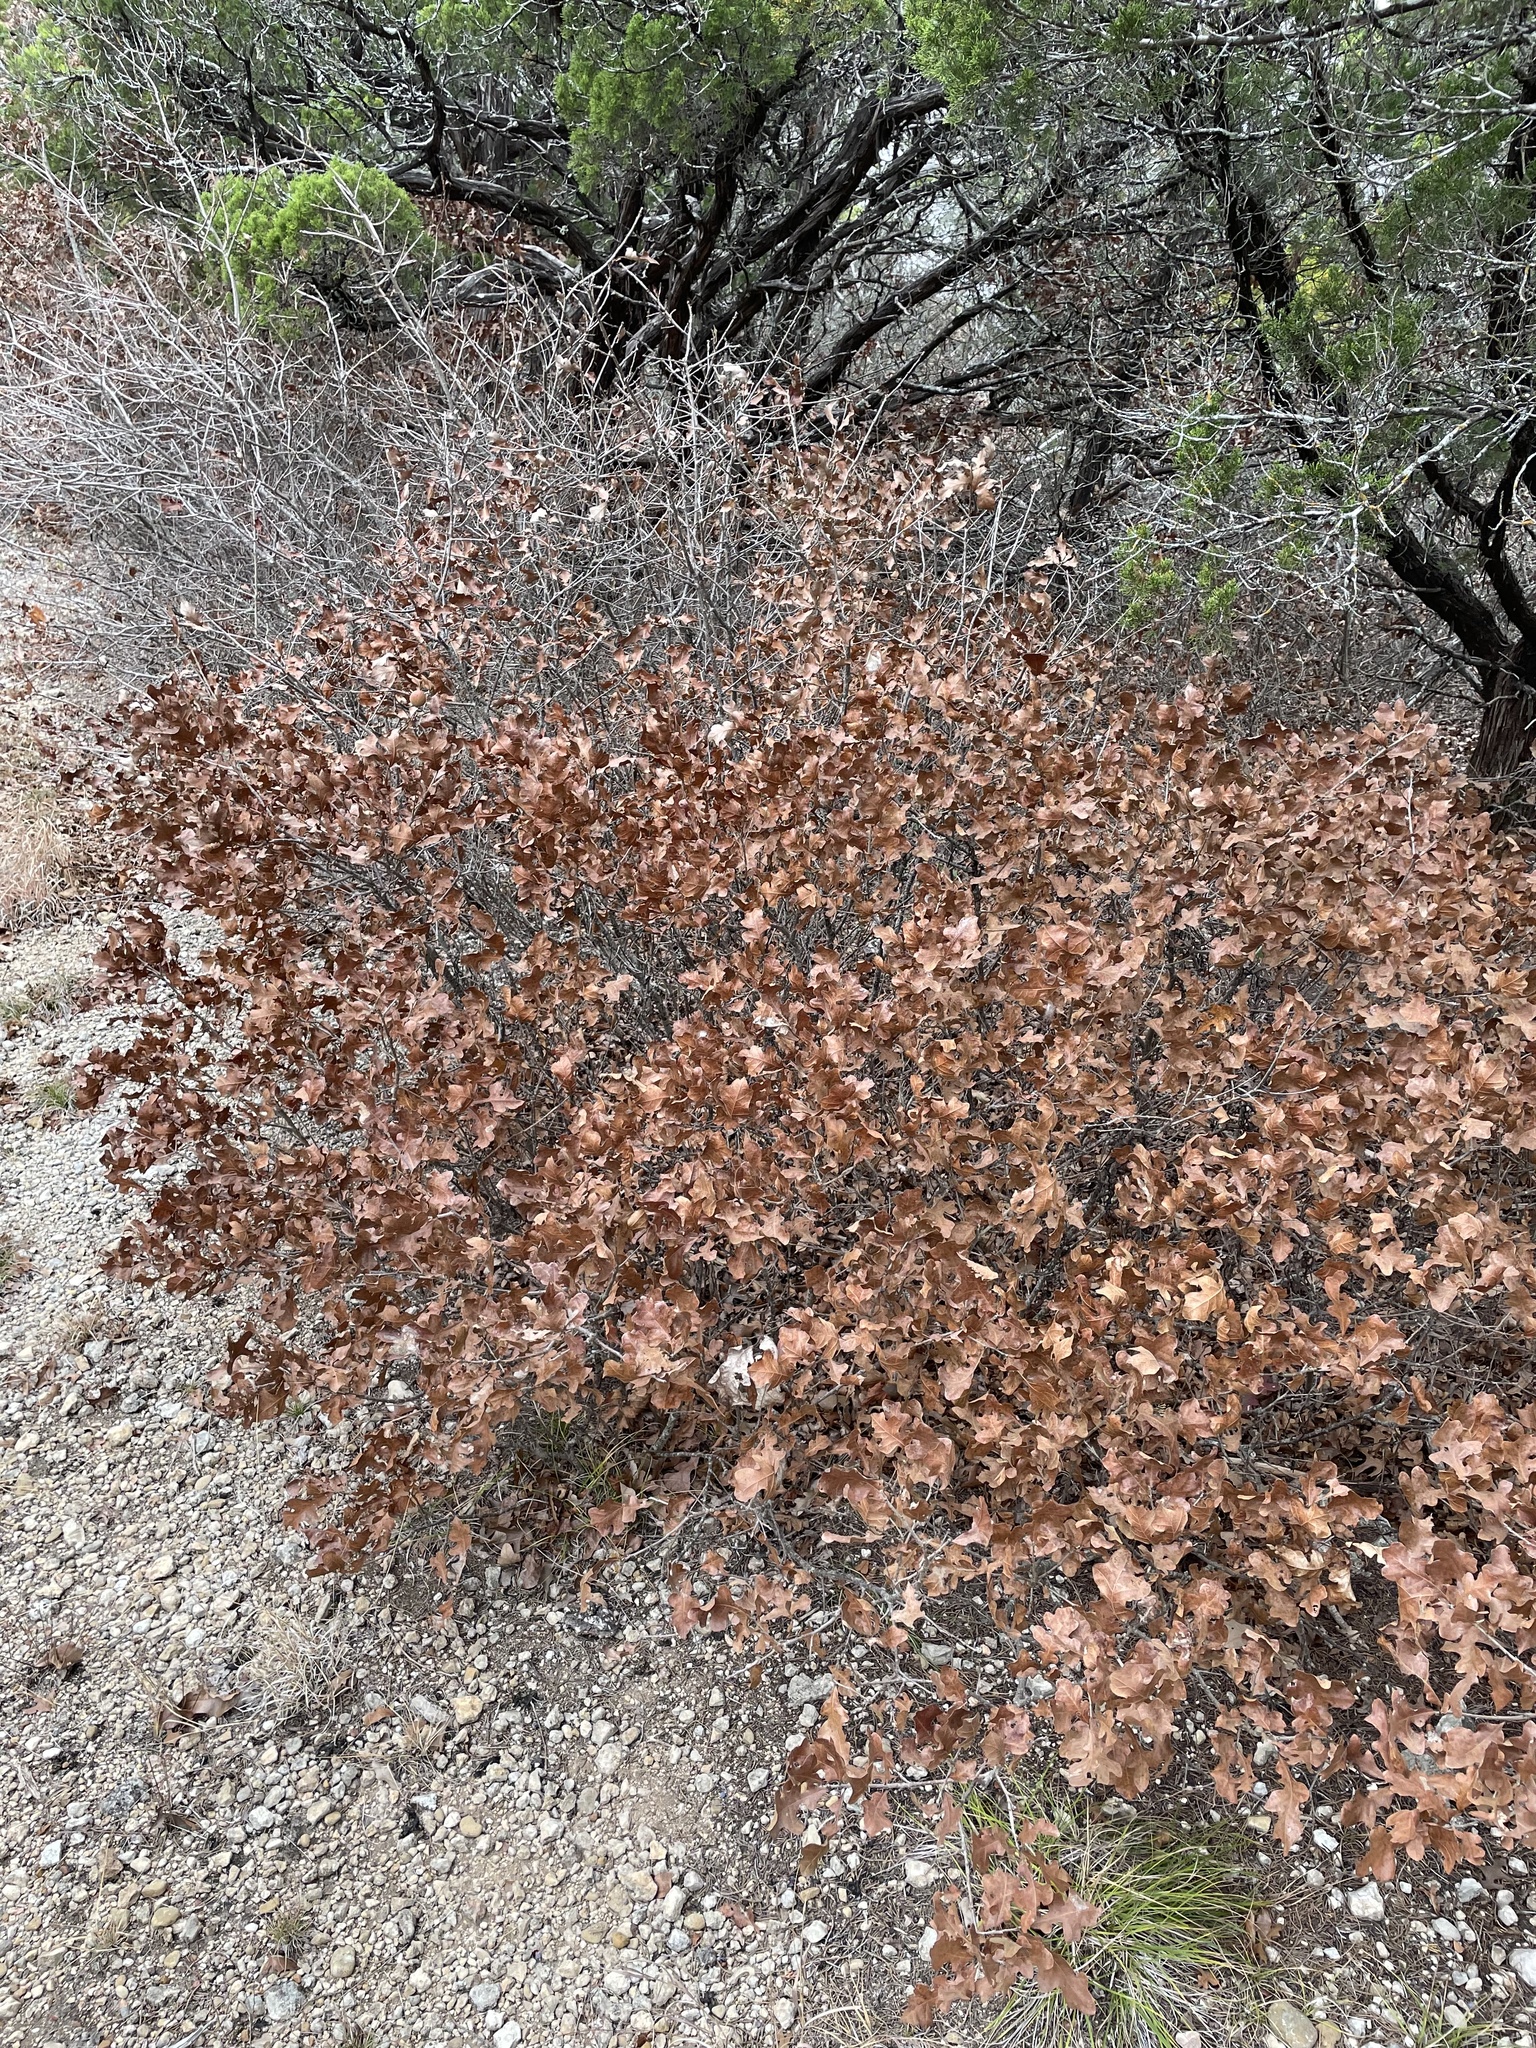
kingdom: Plantae
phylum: Tracheophyta
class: Magnoliopsida
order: Fagales
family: Fagaceae
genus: Quercus
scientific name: Quercus sinuata
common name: Durand oak
